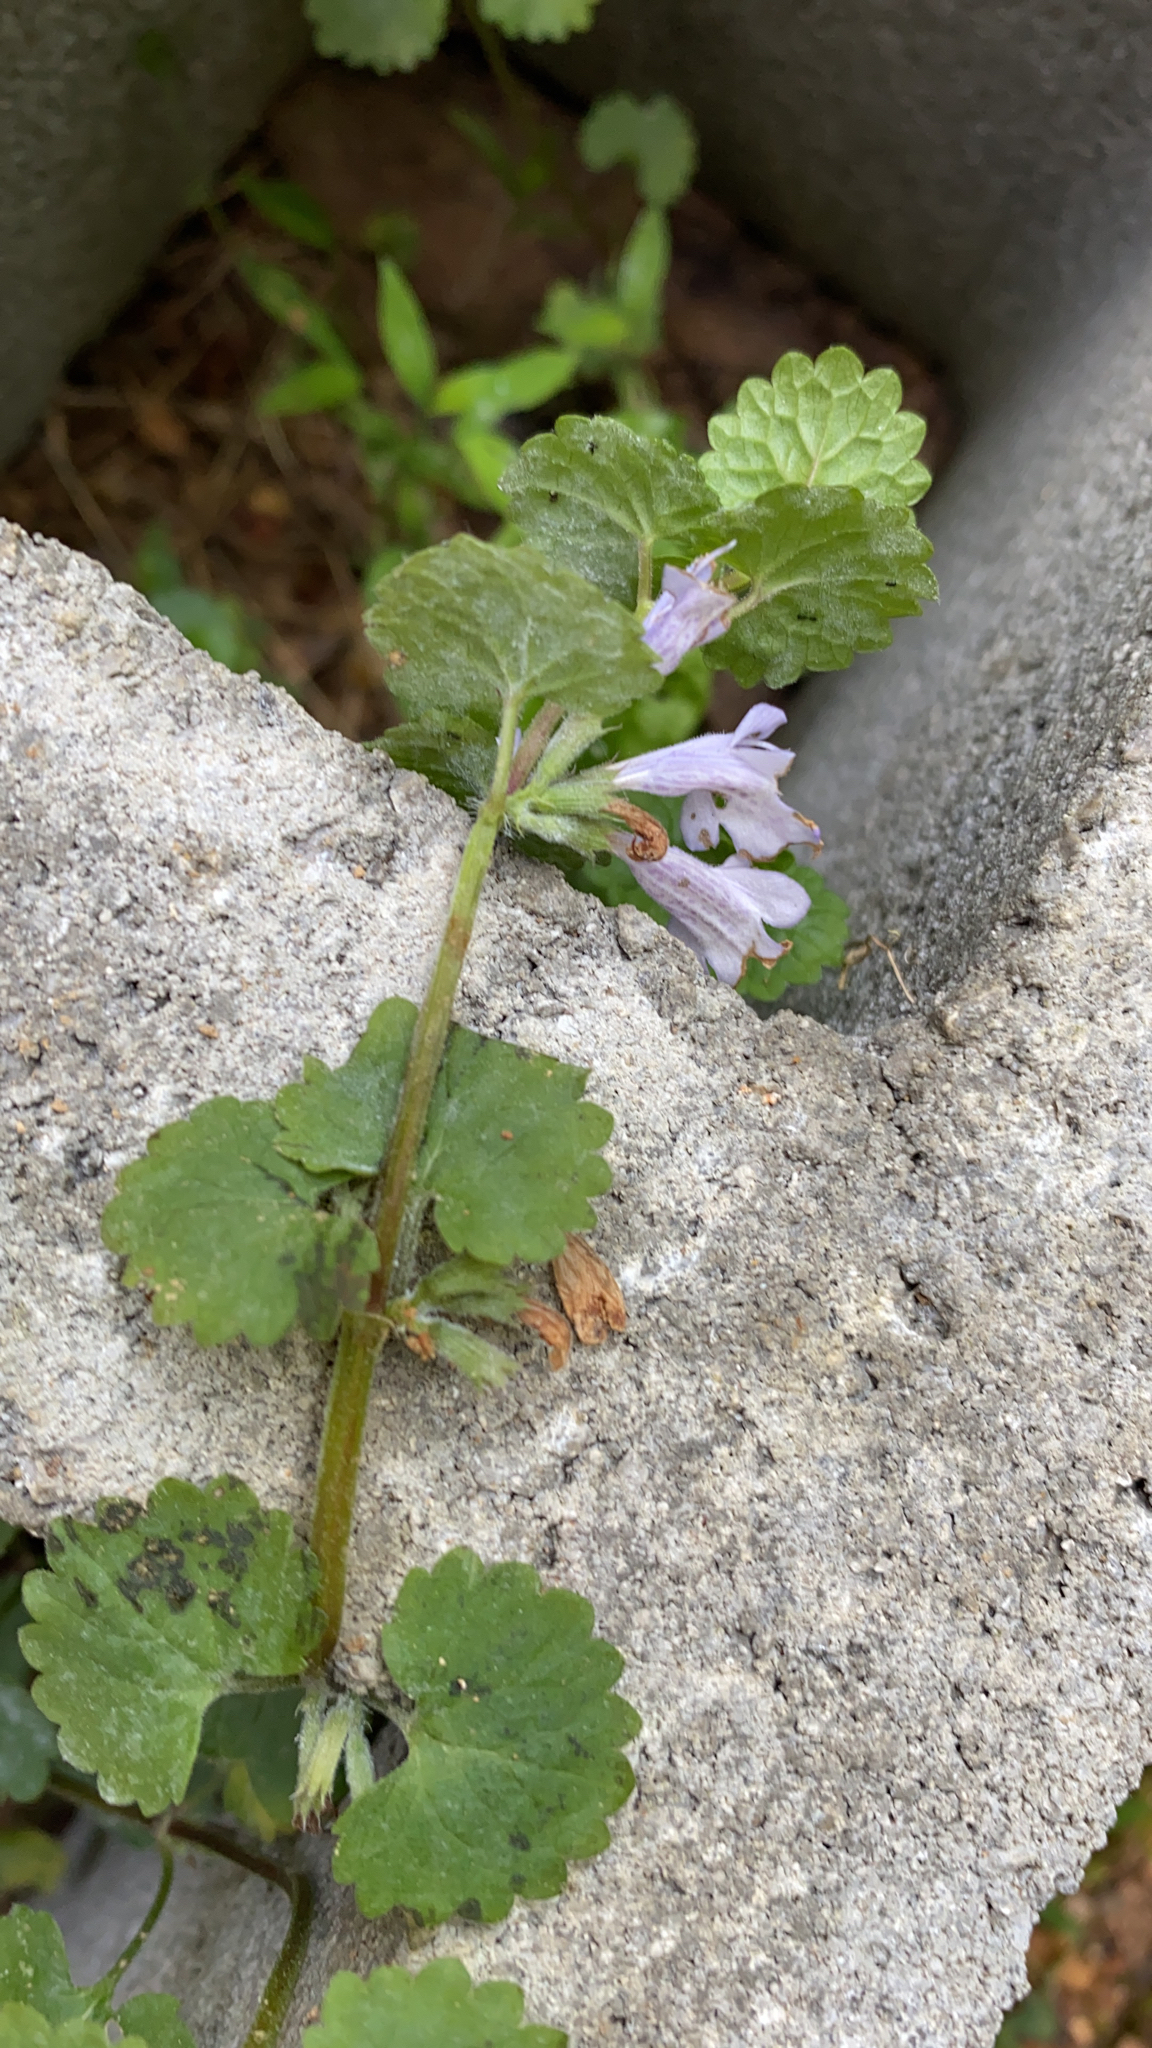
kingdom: Plantae
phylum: Tracheophyta
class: Magnoliopsida
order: Lamiales
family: Lamiaceae
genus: Glechoma
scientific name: Glechoma hederacea
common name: Ground ivy
